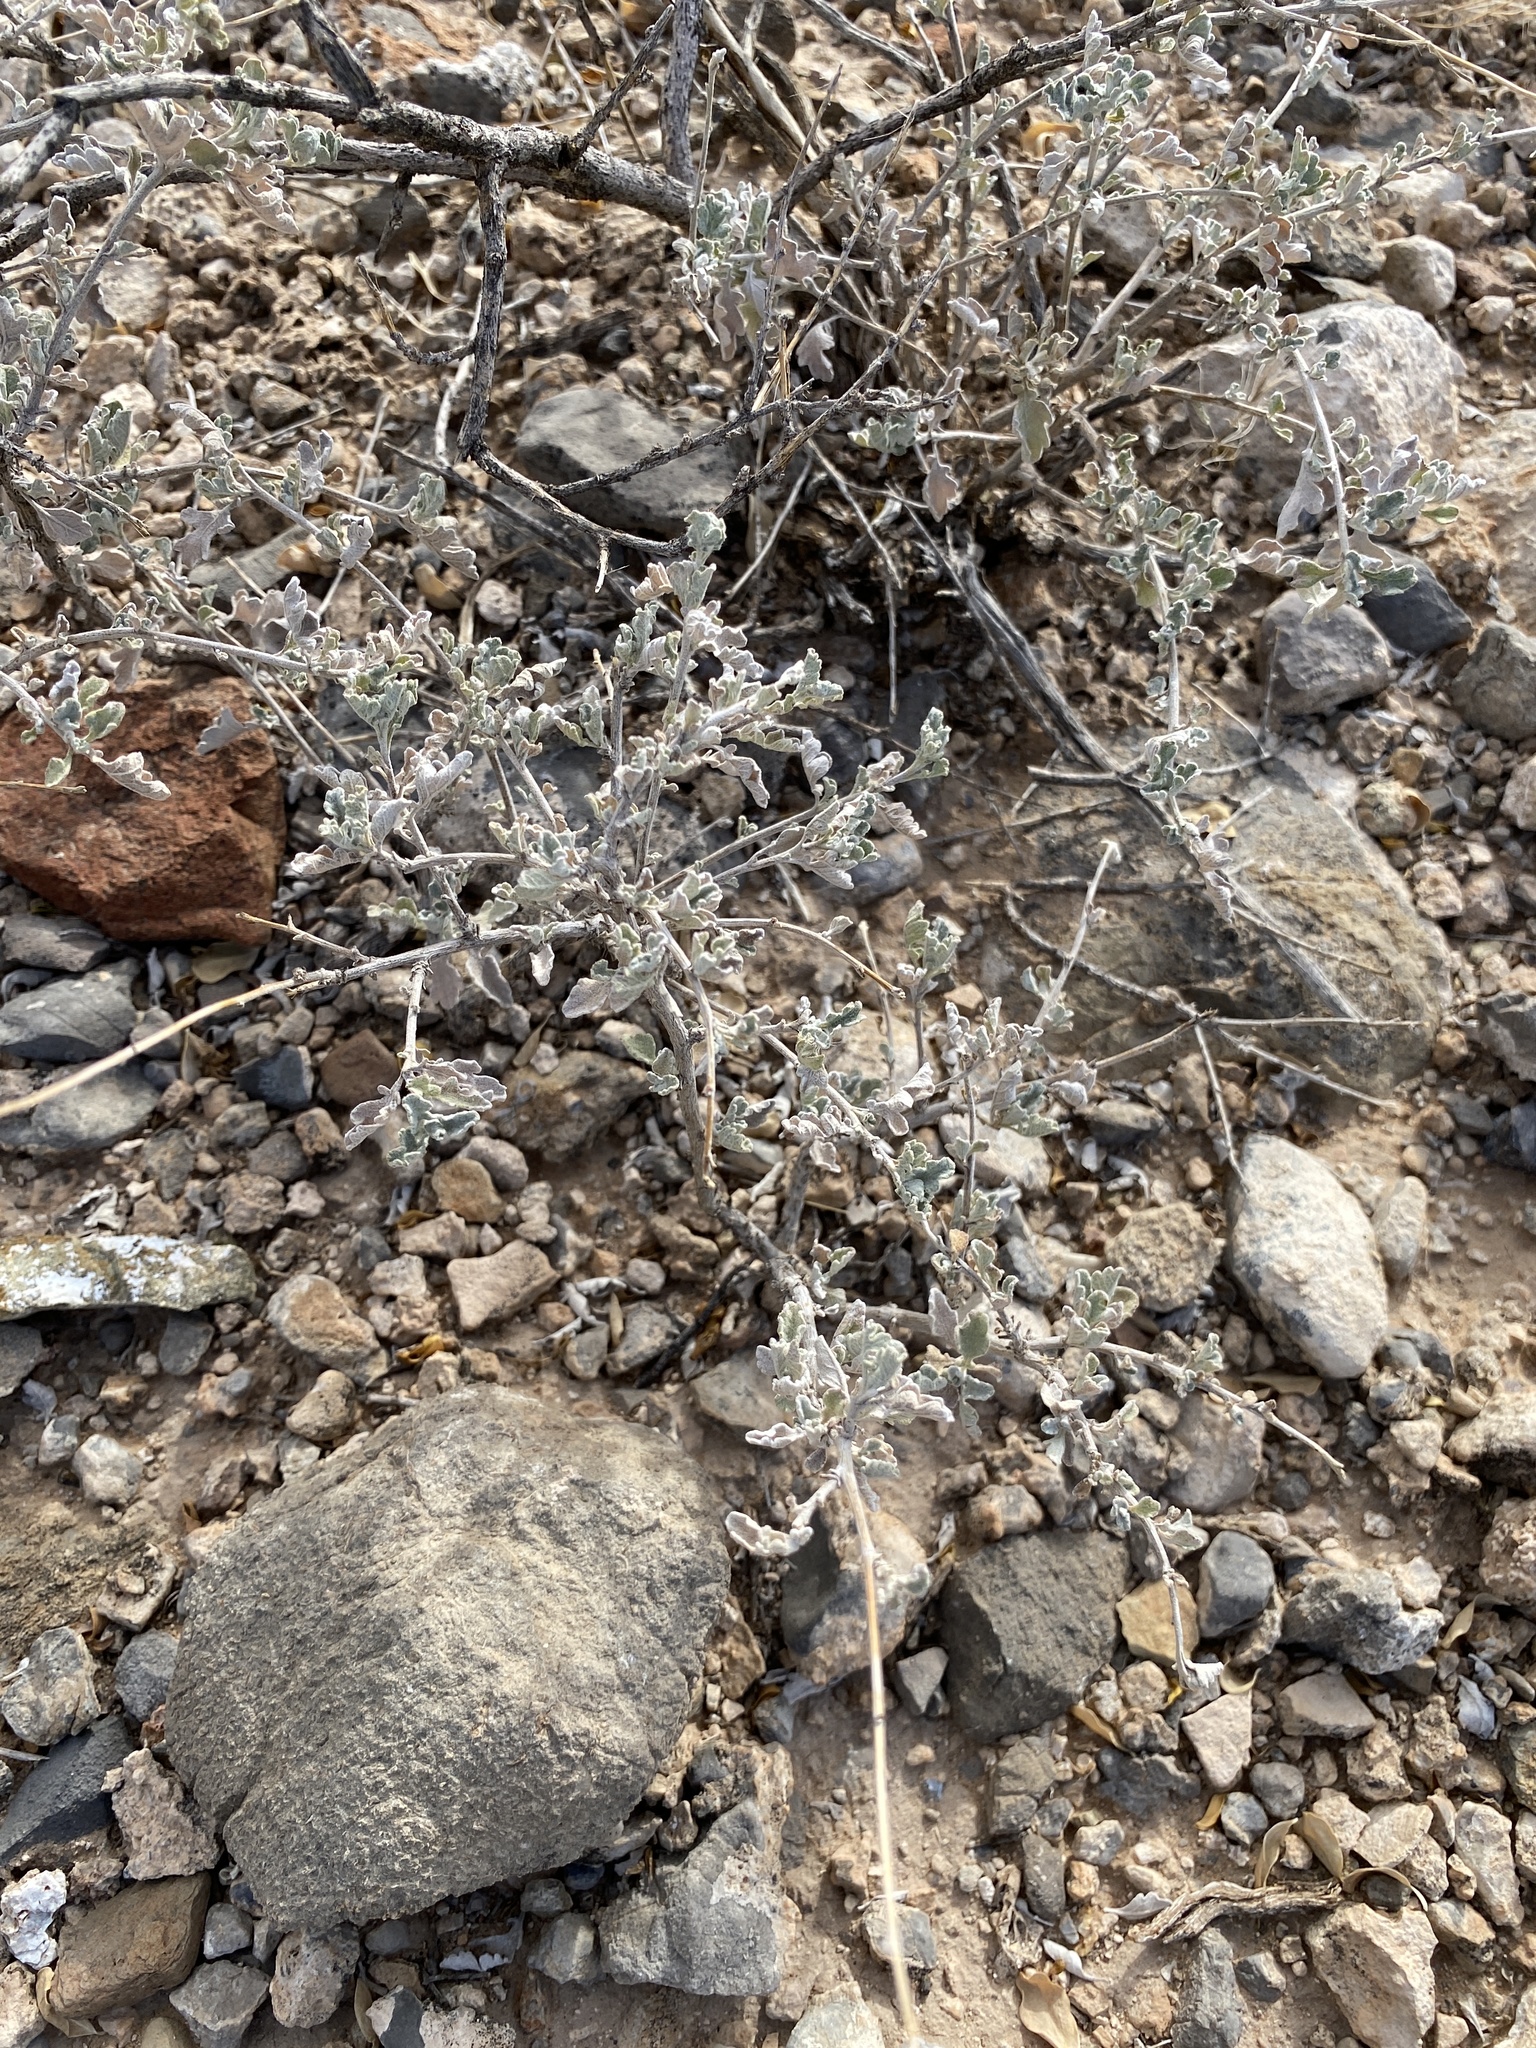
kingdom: Plantae
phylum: Tracheophyta
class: Magnoliopsida
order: Asterales
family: Asteraceae
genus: Parthenium
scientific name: Parthenium incanum
